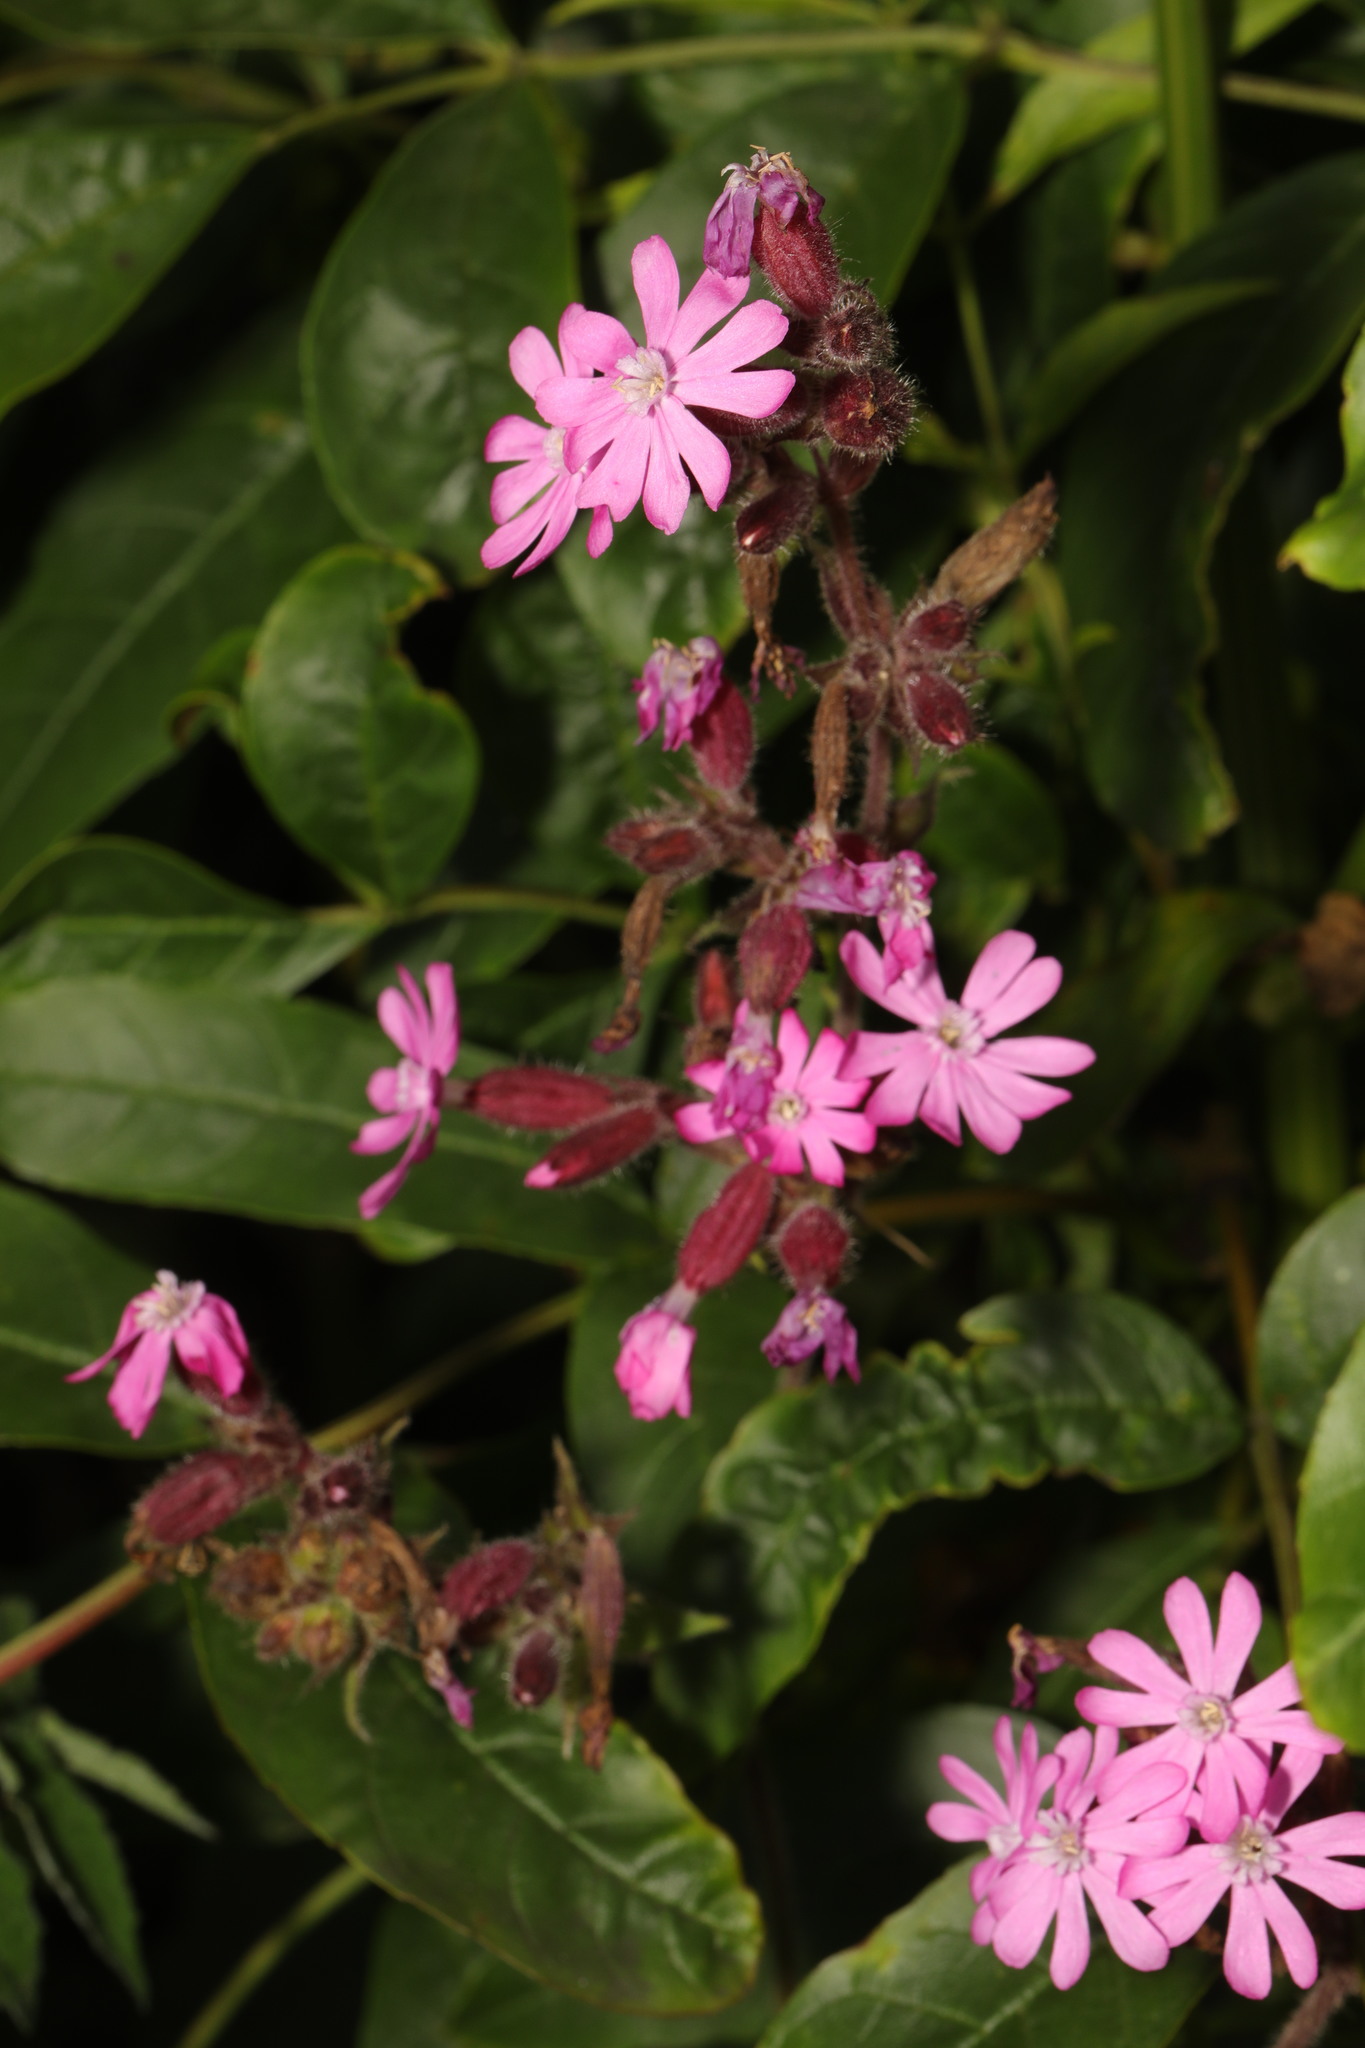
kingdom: Plantae
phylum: Tracheophyta
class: Magnoliopsida
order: Caryophyllales
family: Caryophyllaceae
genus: Silene
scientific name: Silene dioica
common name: Red campion
